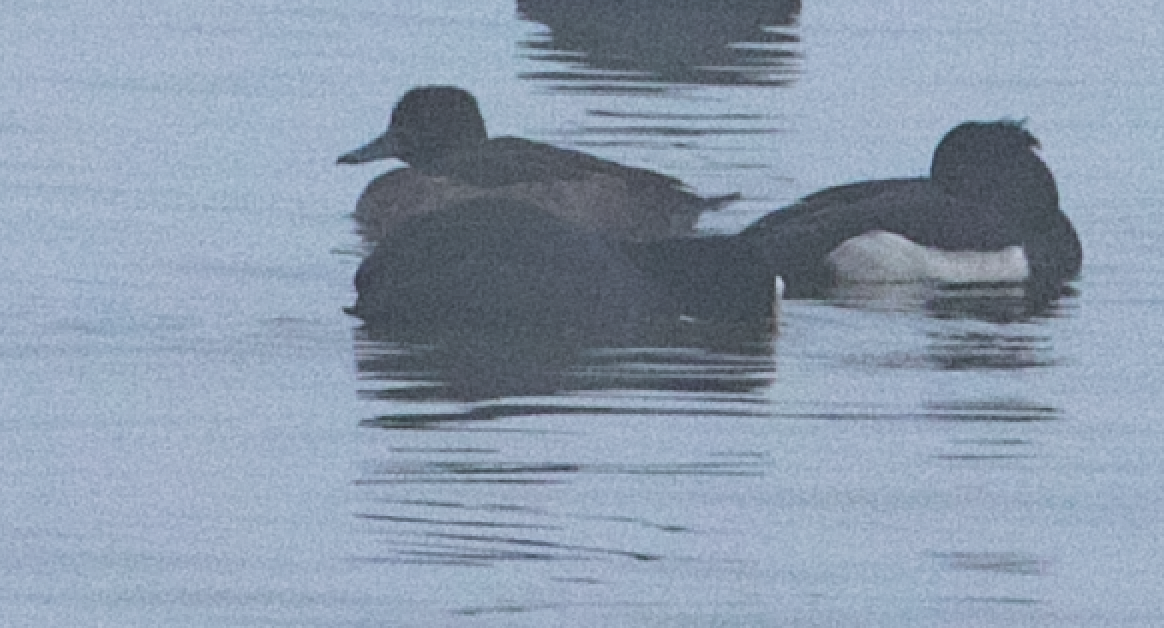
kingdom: Animalia
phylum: Chordata
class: Aves
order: Anseriformes
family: Anatidae
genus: Aythya
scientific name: Aythya fuligula
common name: Tufted duck
